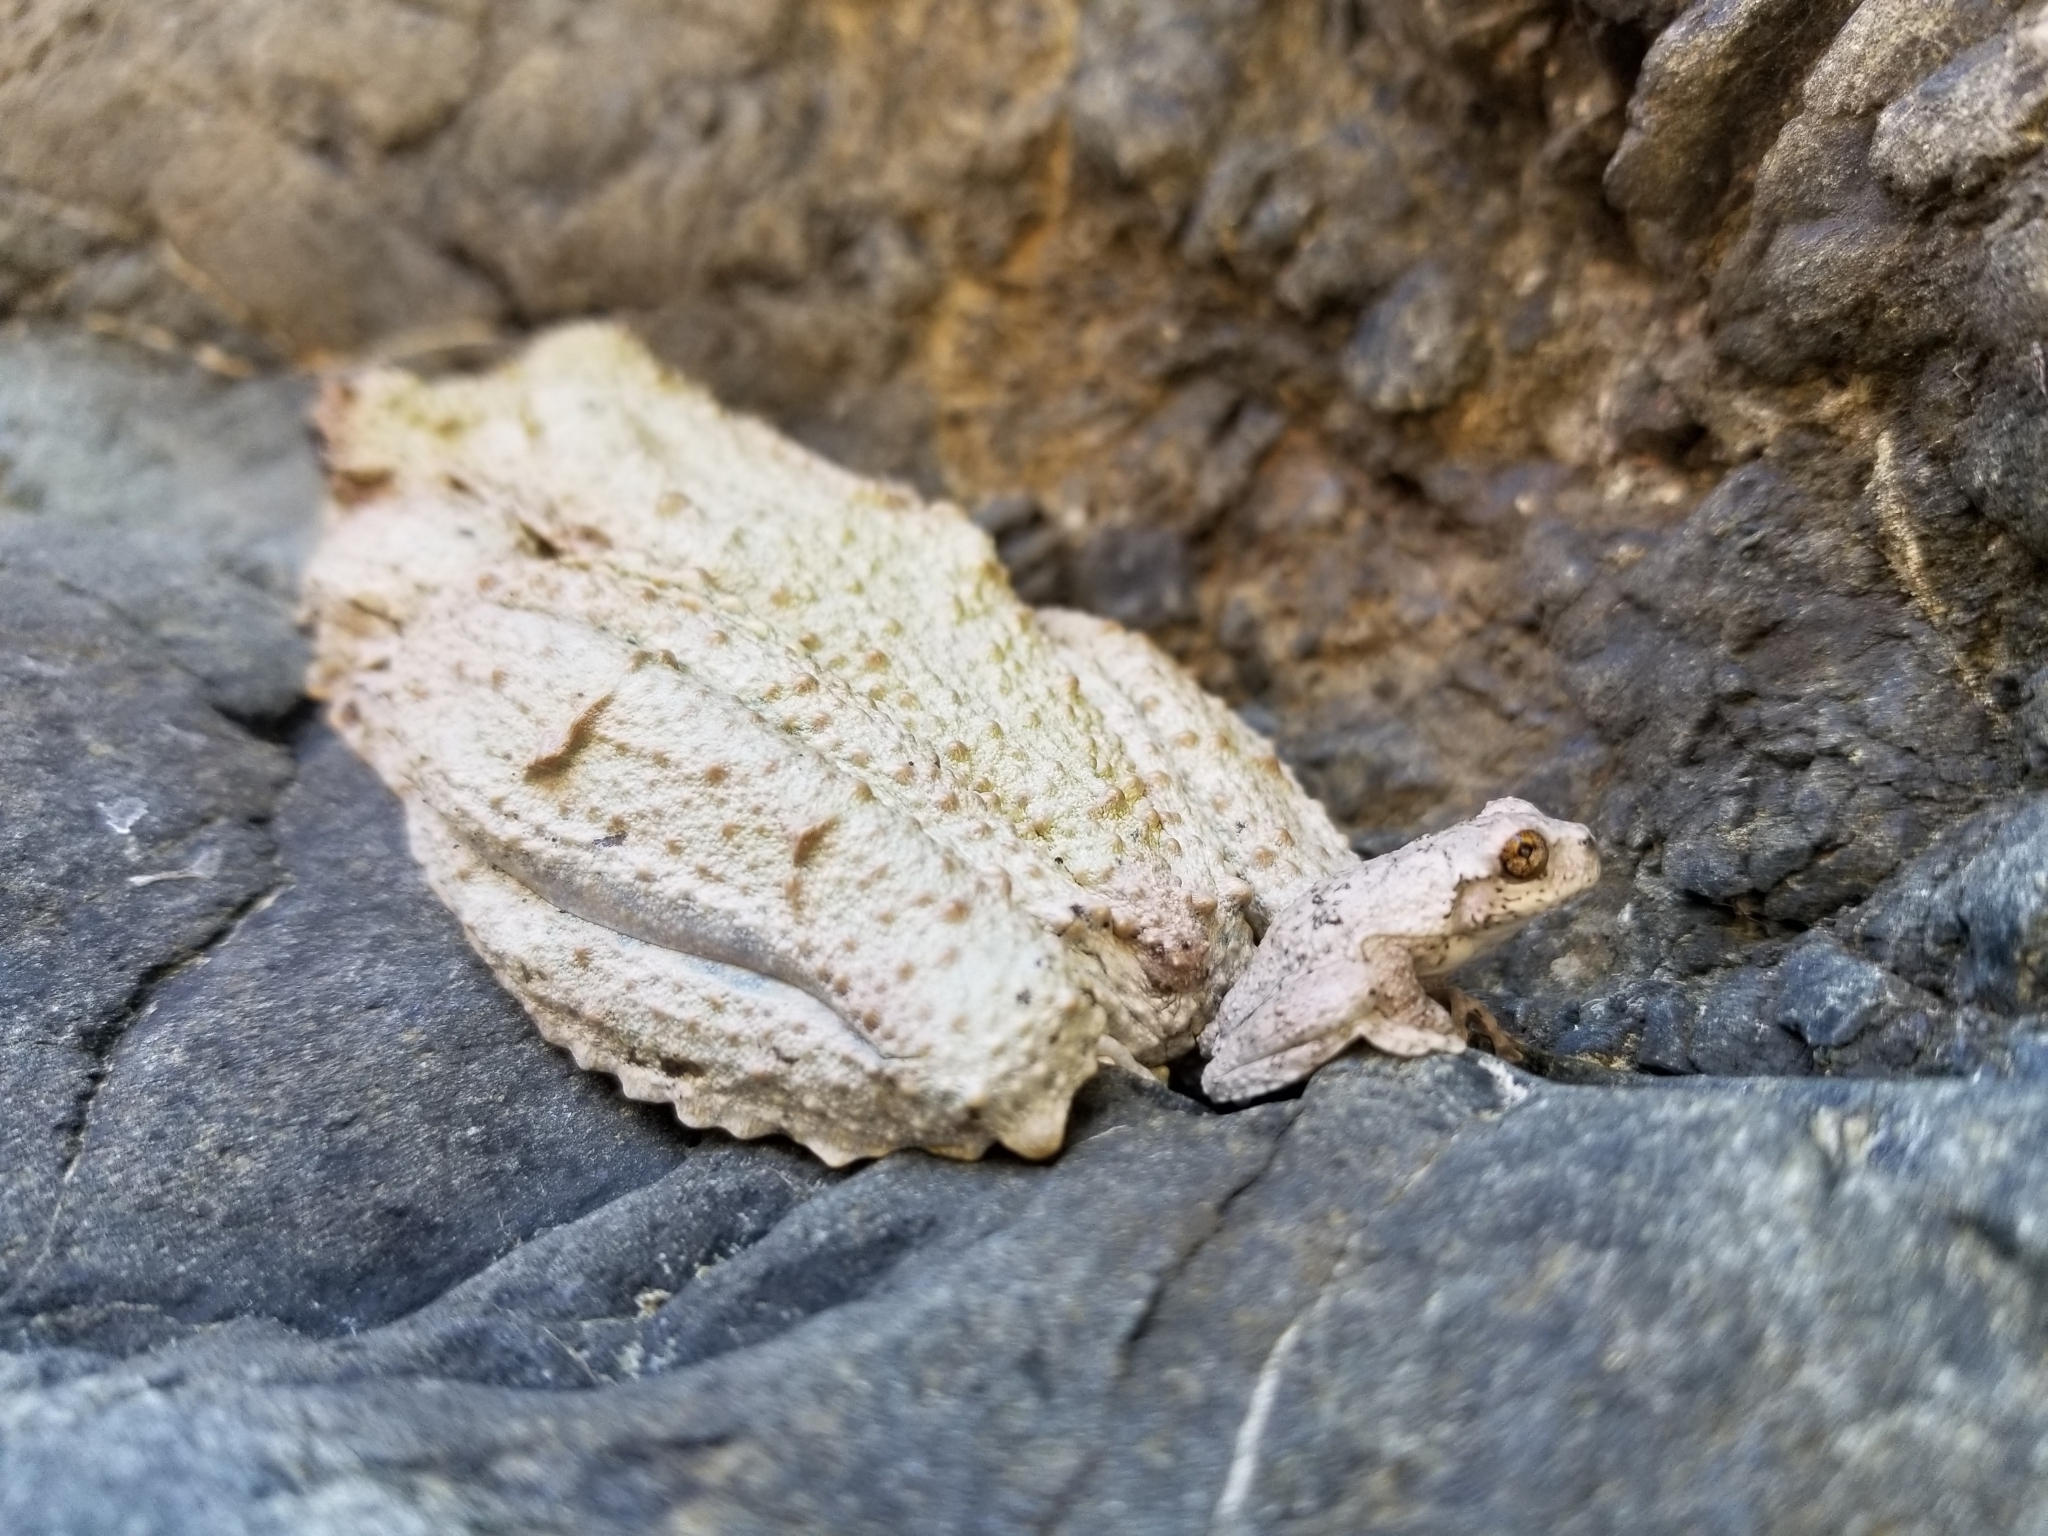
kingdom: Animalia
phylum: Chordata
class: Amphibia
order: Anura
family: Hylidae
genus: Osteopilus
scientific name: Osteopilus vastus
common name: Hispaniolan giant treefrog
